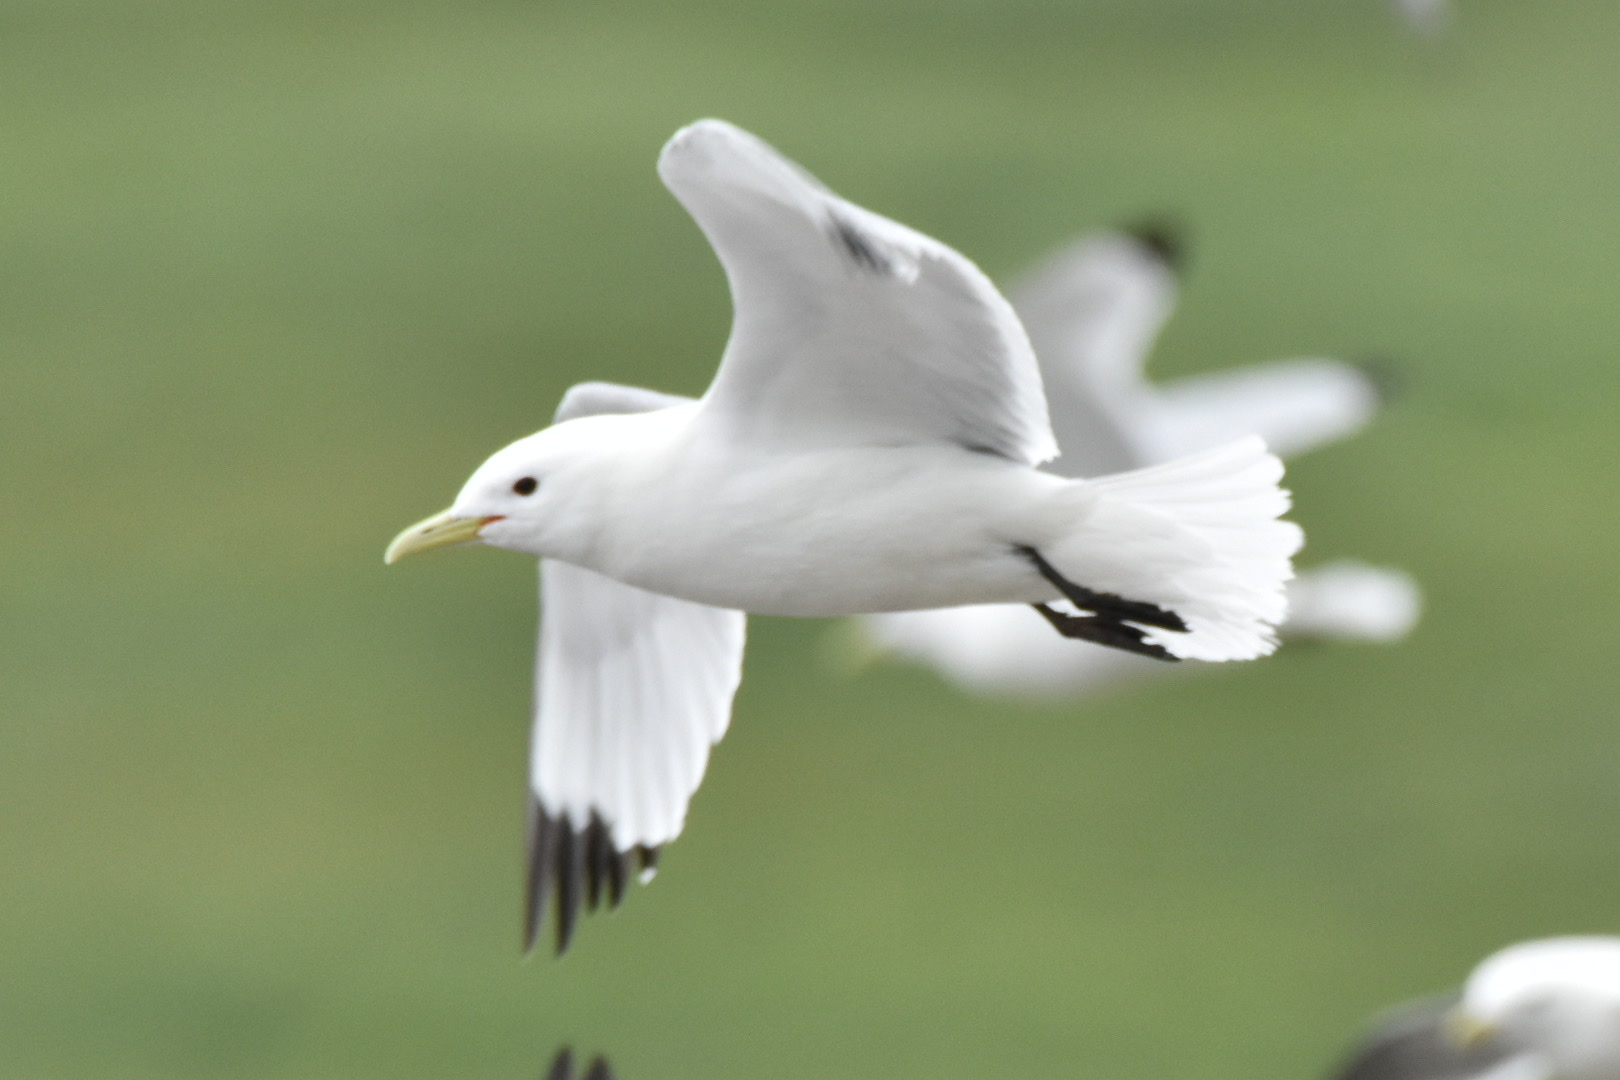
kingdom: Animalia
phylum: Chordata
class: Aves
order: Charadriiformes
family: Laridae
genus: Rissa
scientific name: Rissa tridactyla
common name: Black-legged kittiwake
